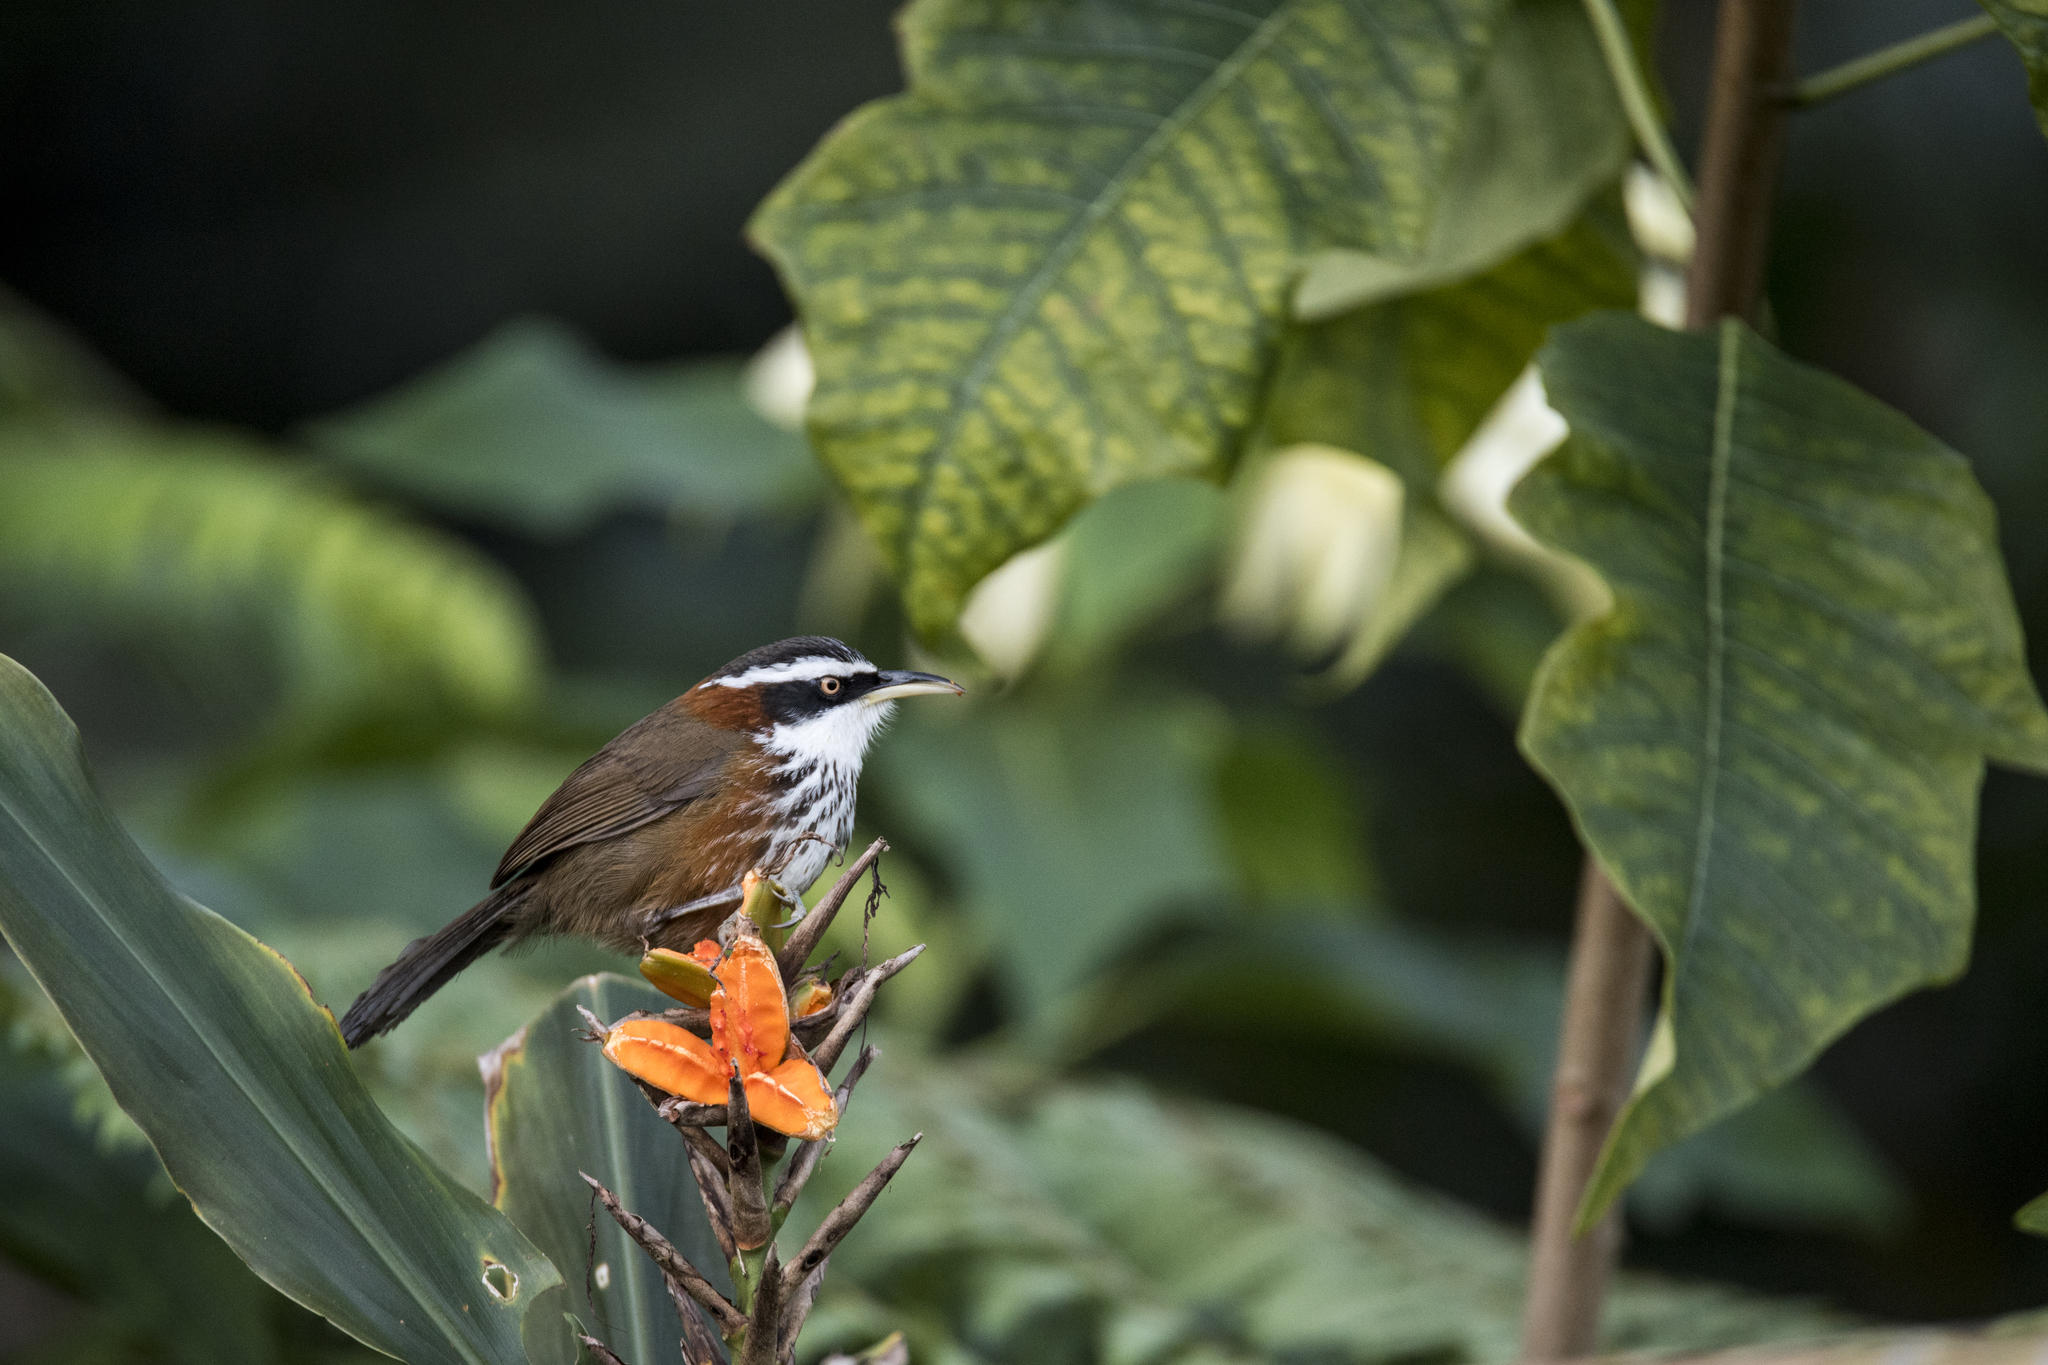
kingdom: Animalia
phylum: Chordata
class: Aves
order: Passeriformes
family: Timaliidae
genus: Pomatorhinus
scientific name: Pomatorhinus musicus
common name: Taiwan scimitar-babbler
